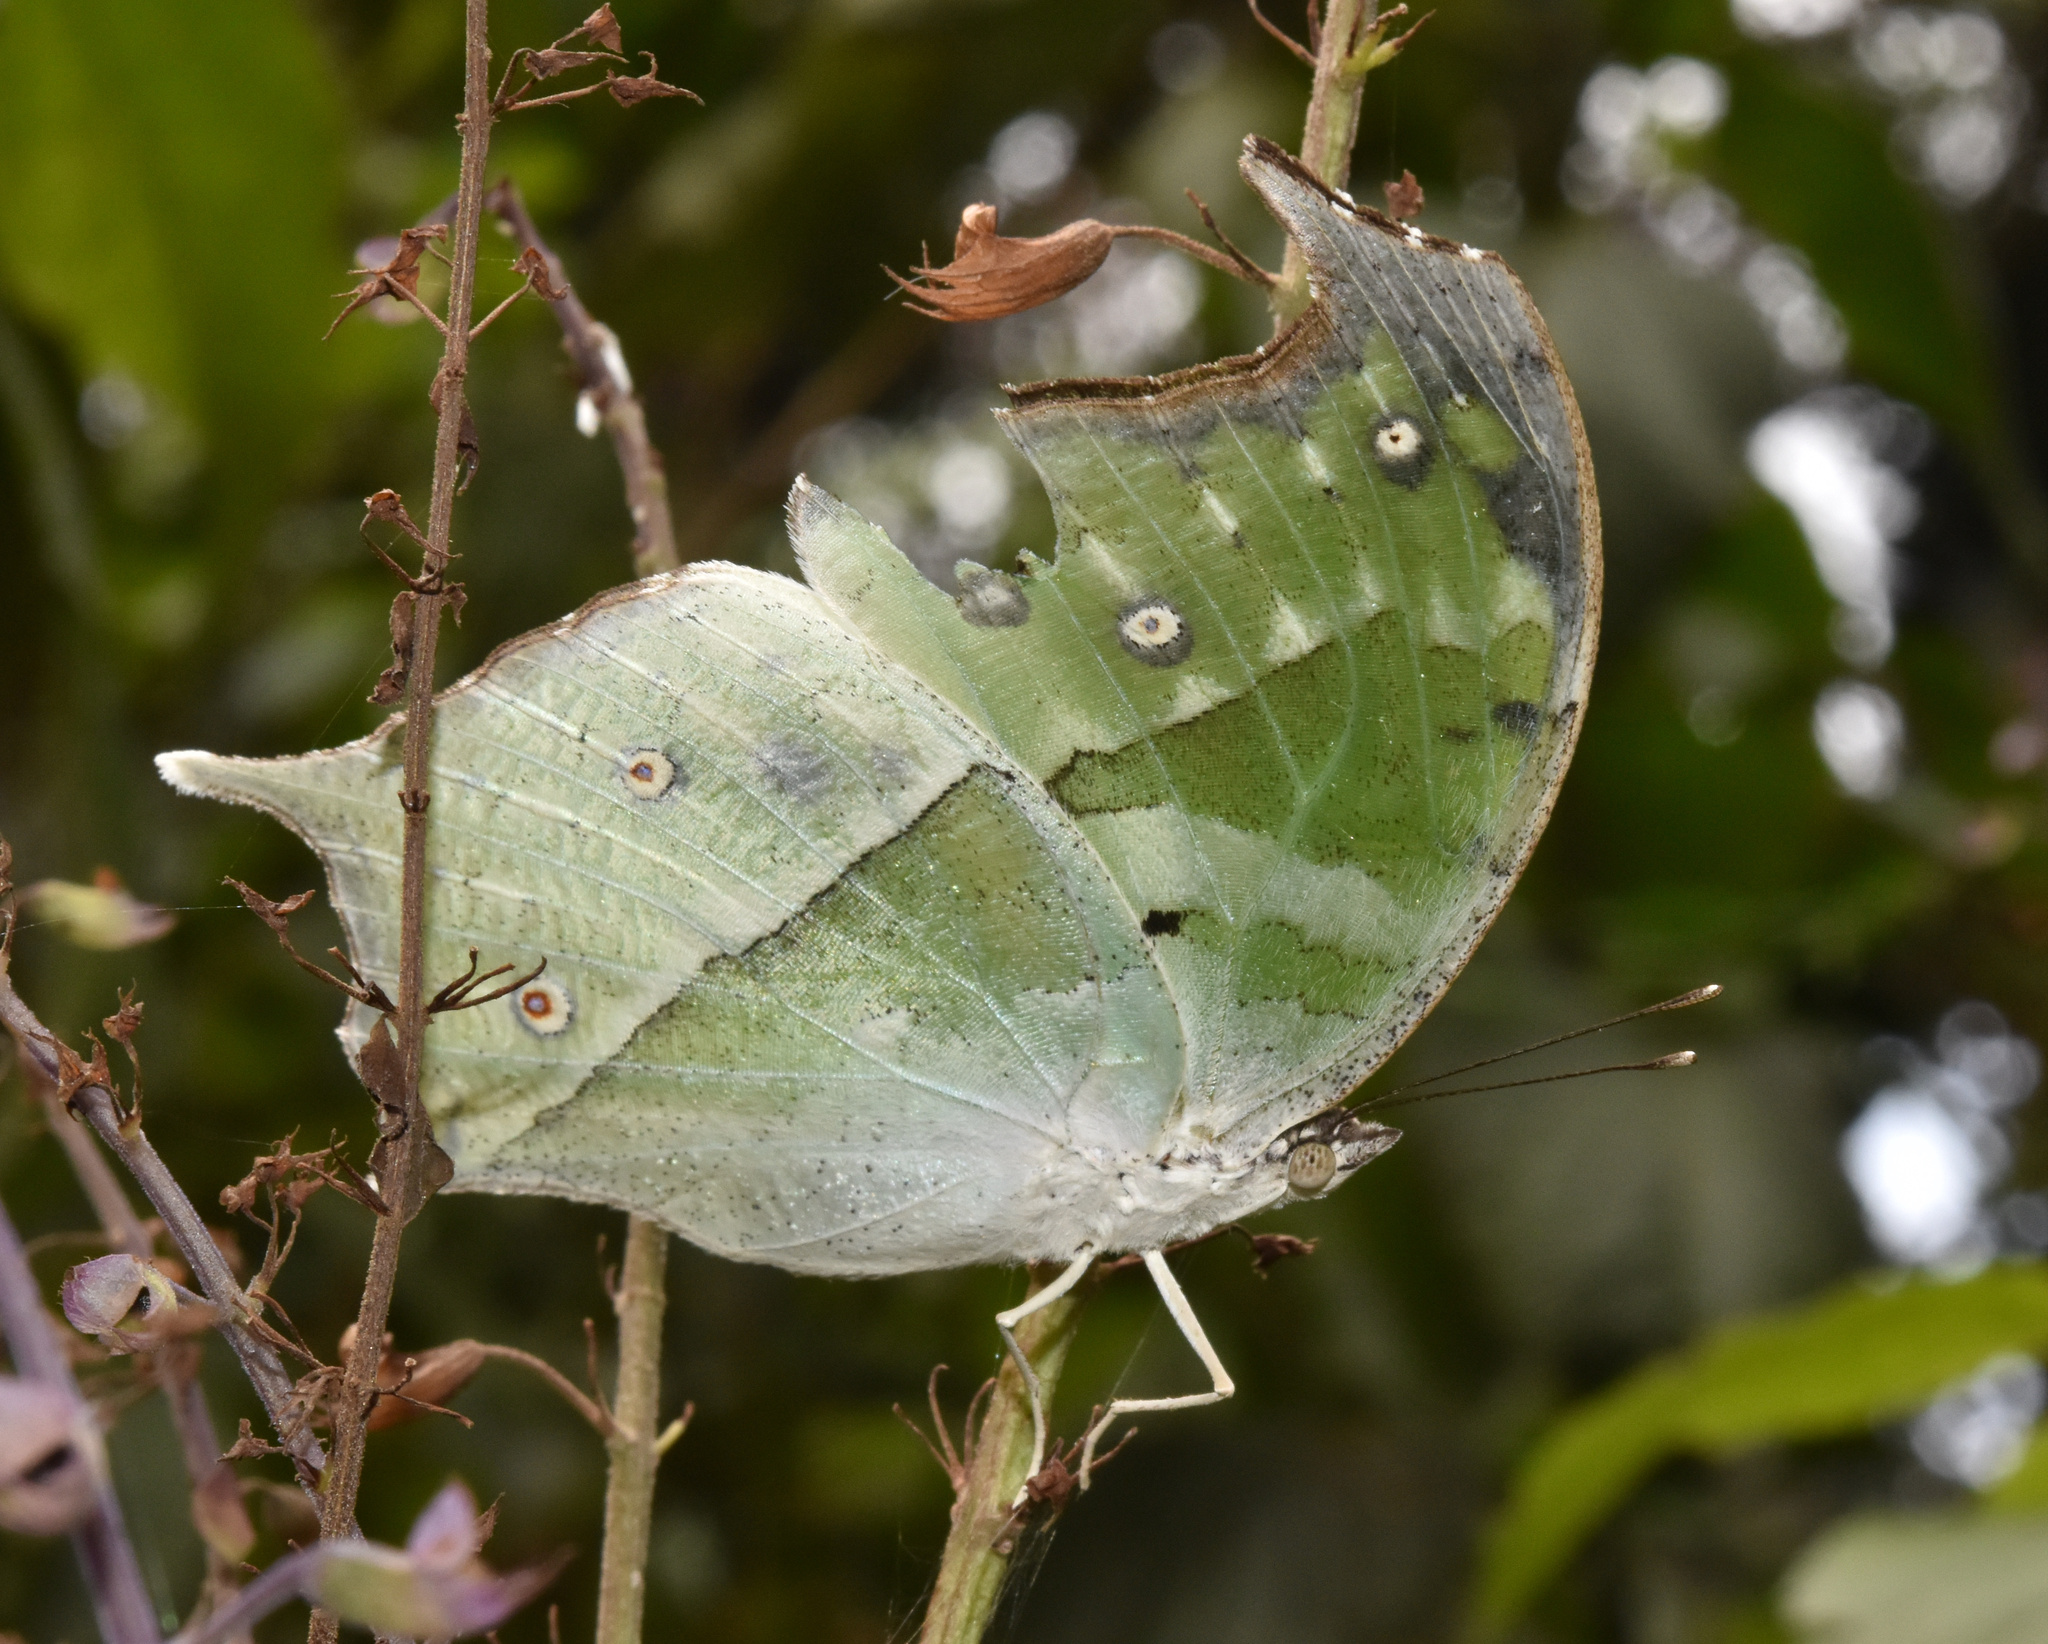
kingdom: Animalia
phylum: Arthropoda
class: Insecta
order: Lepidoptera
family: Nymphalidae
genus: Salamis
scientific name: Salamis Protogoniomorpha parhassus
